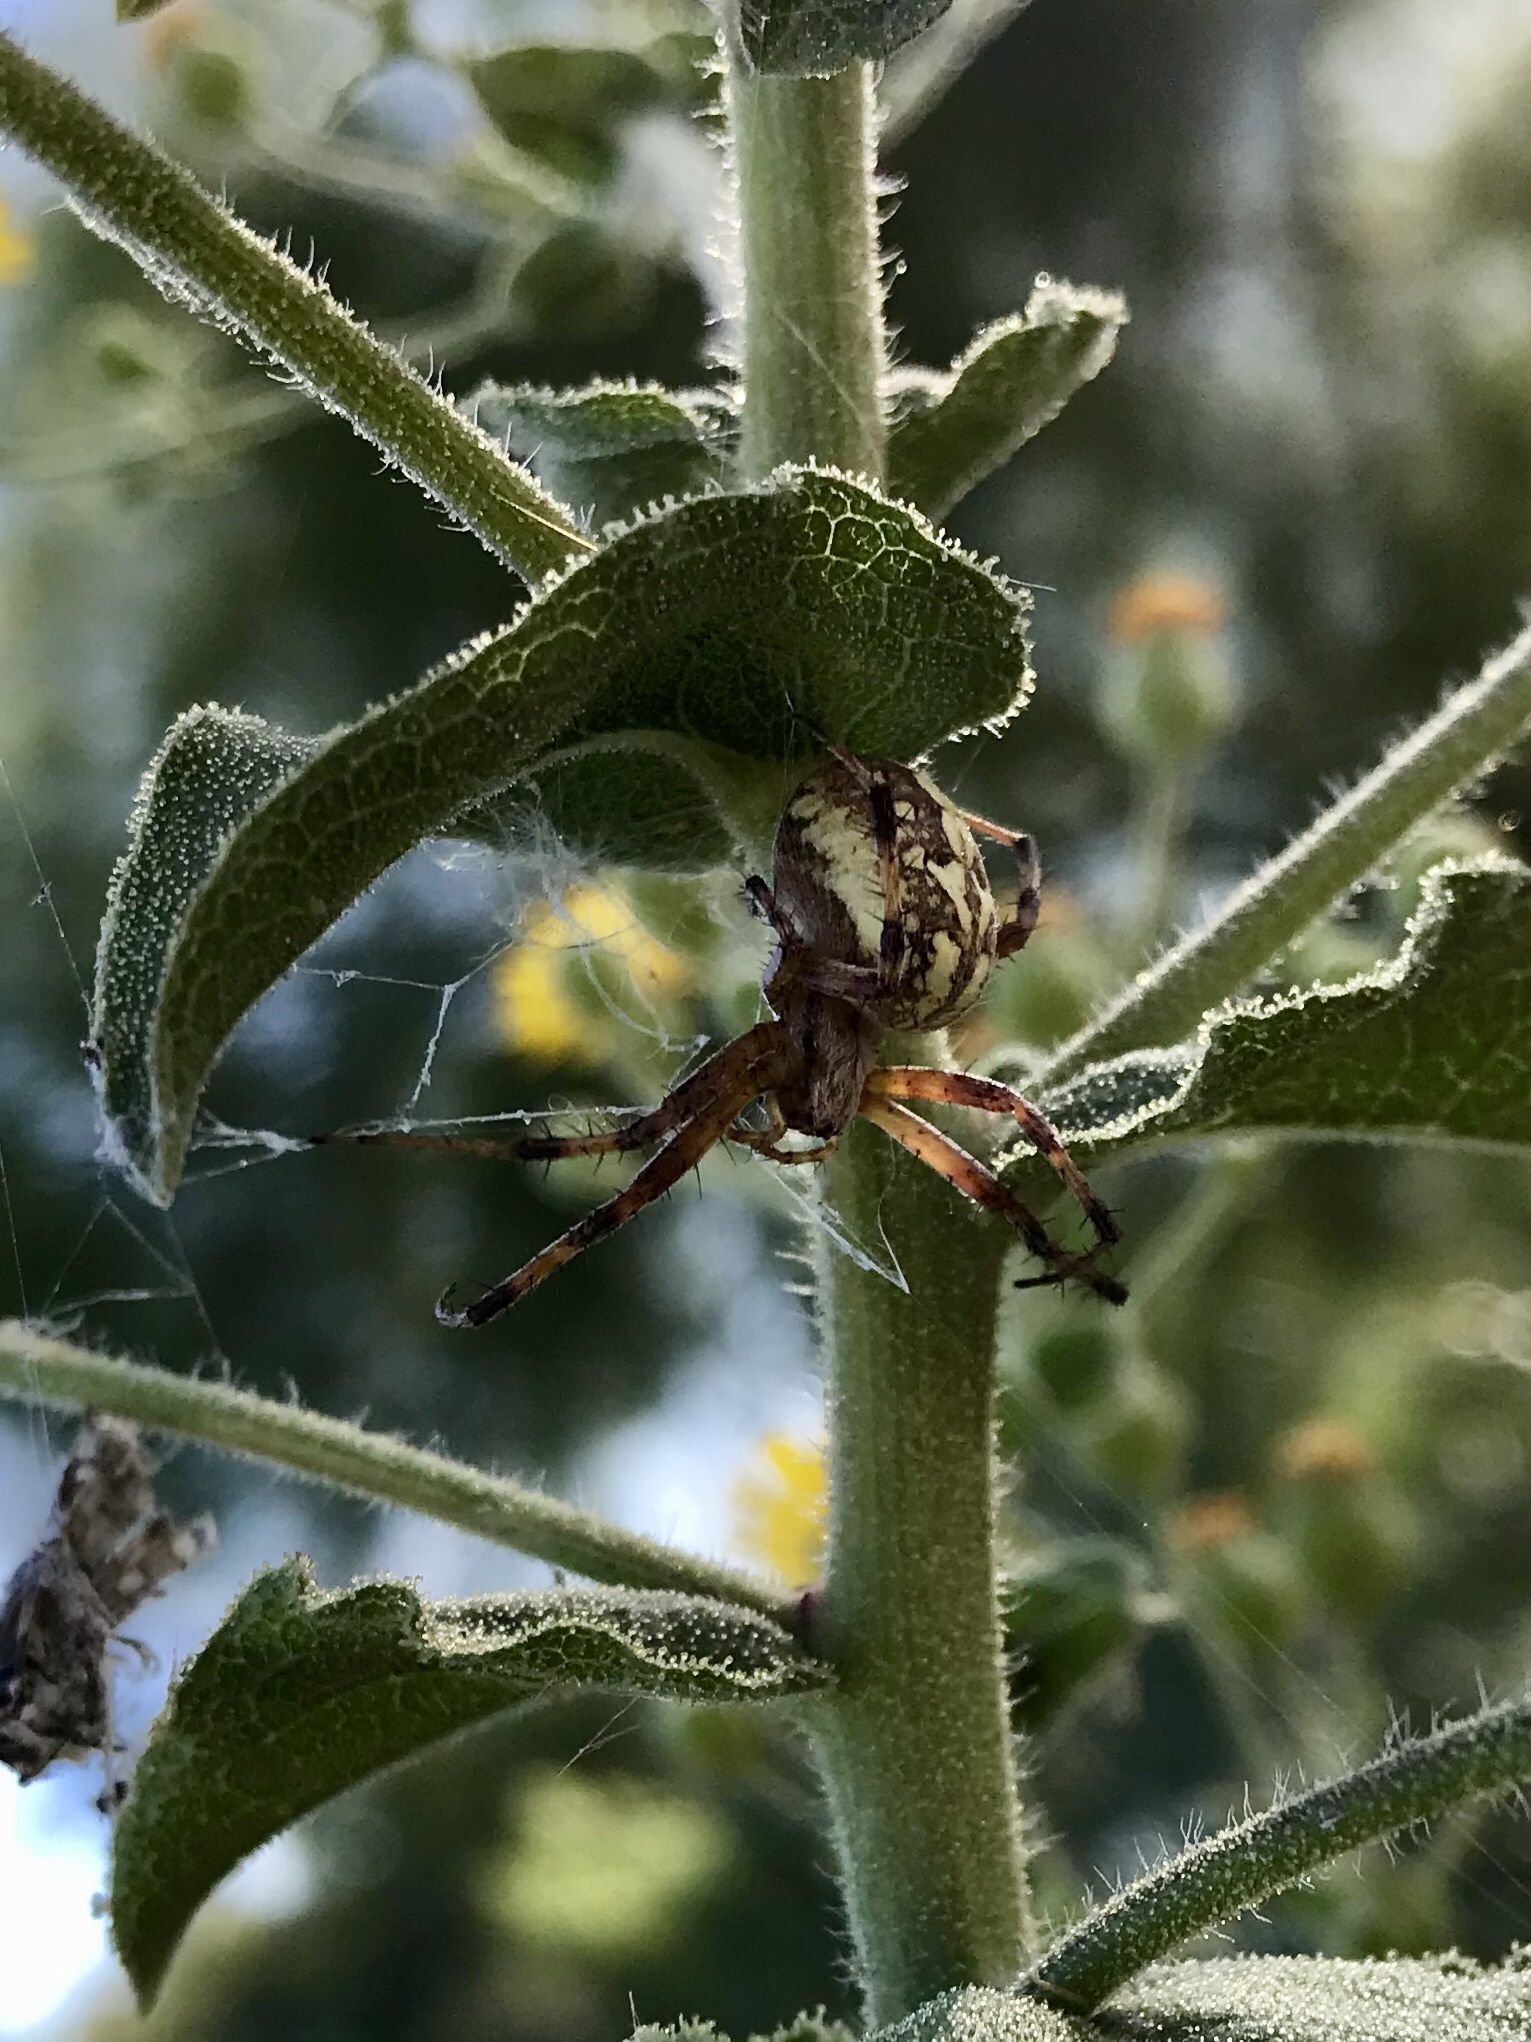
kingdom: Animalia
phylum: Arthropoda
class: Arachnida
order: Araneae
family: Araneidae
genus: Neoscona
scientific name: Neoscona oaxacensis
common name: Orb weavers
